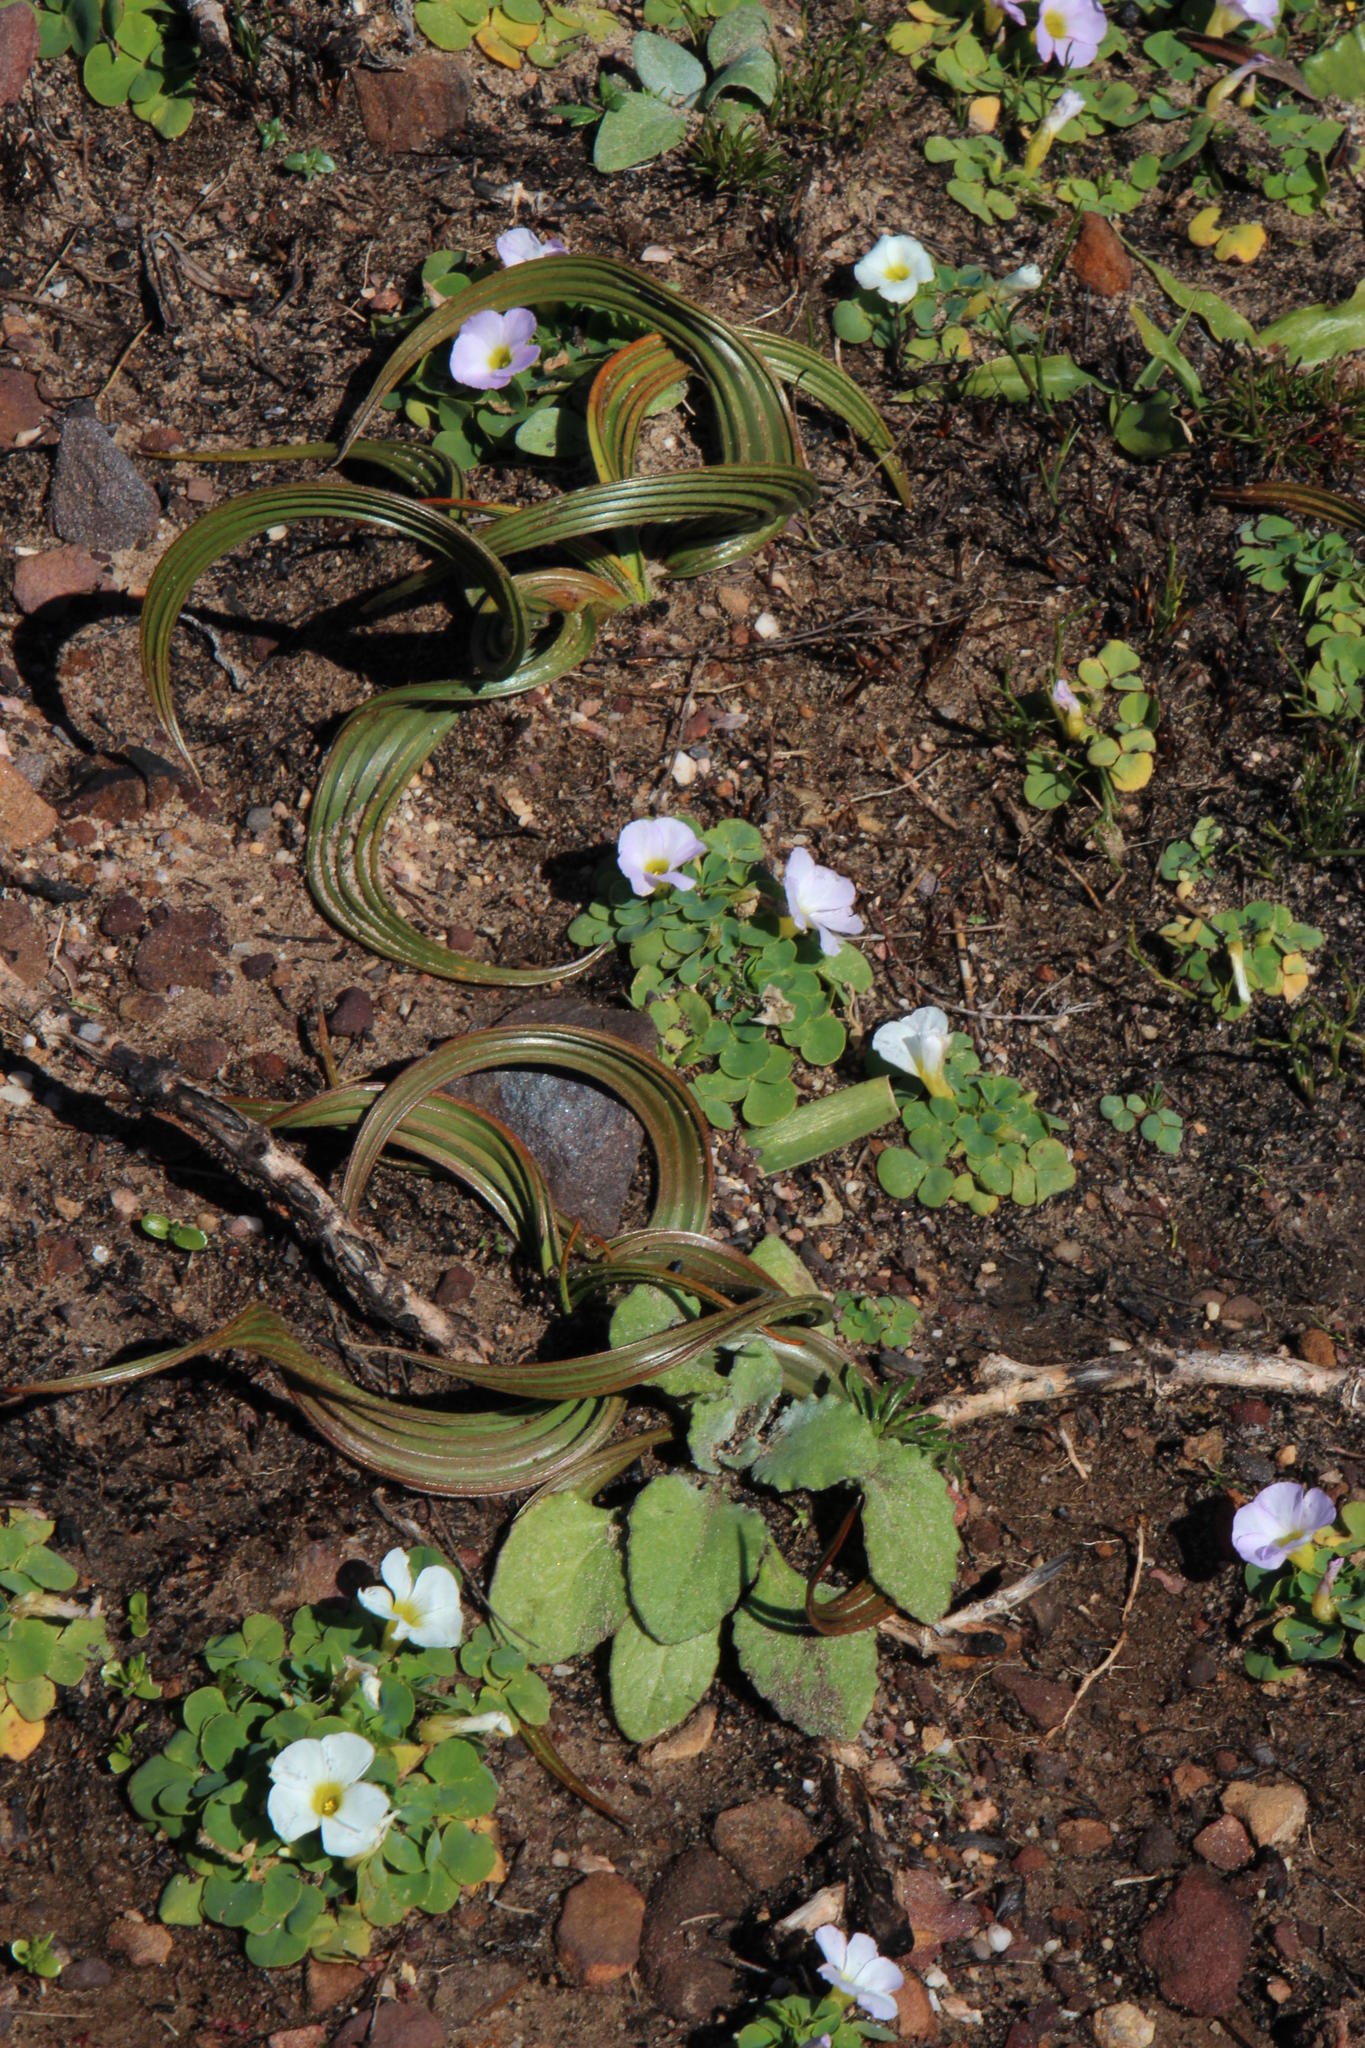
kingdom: Plantae
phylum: Tracheophyta
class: Magnoliopsida
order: Oxalidales
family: Oxalidaceae
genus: Oxalis
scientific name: Oxalis purpurea
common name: Purple woodsorrel
